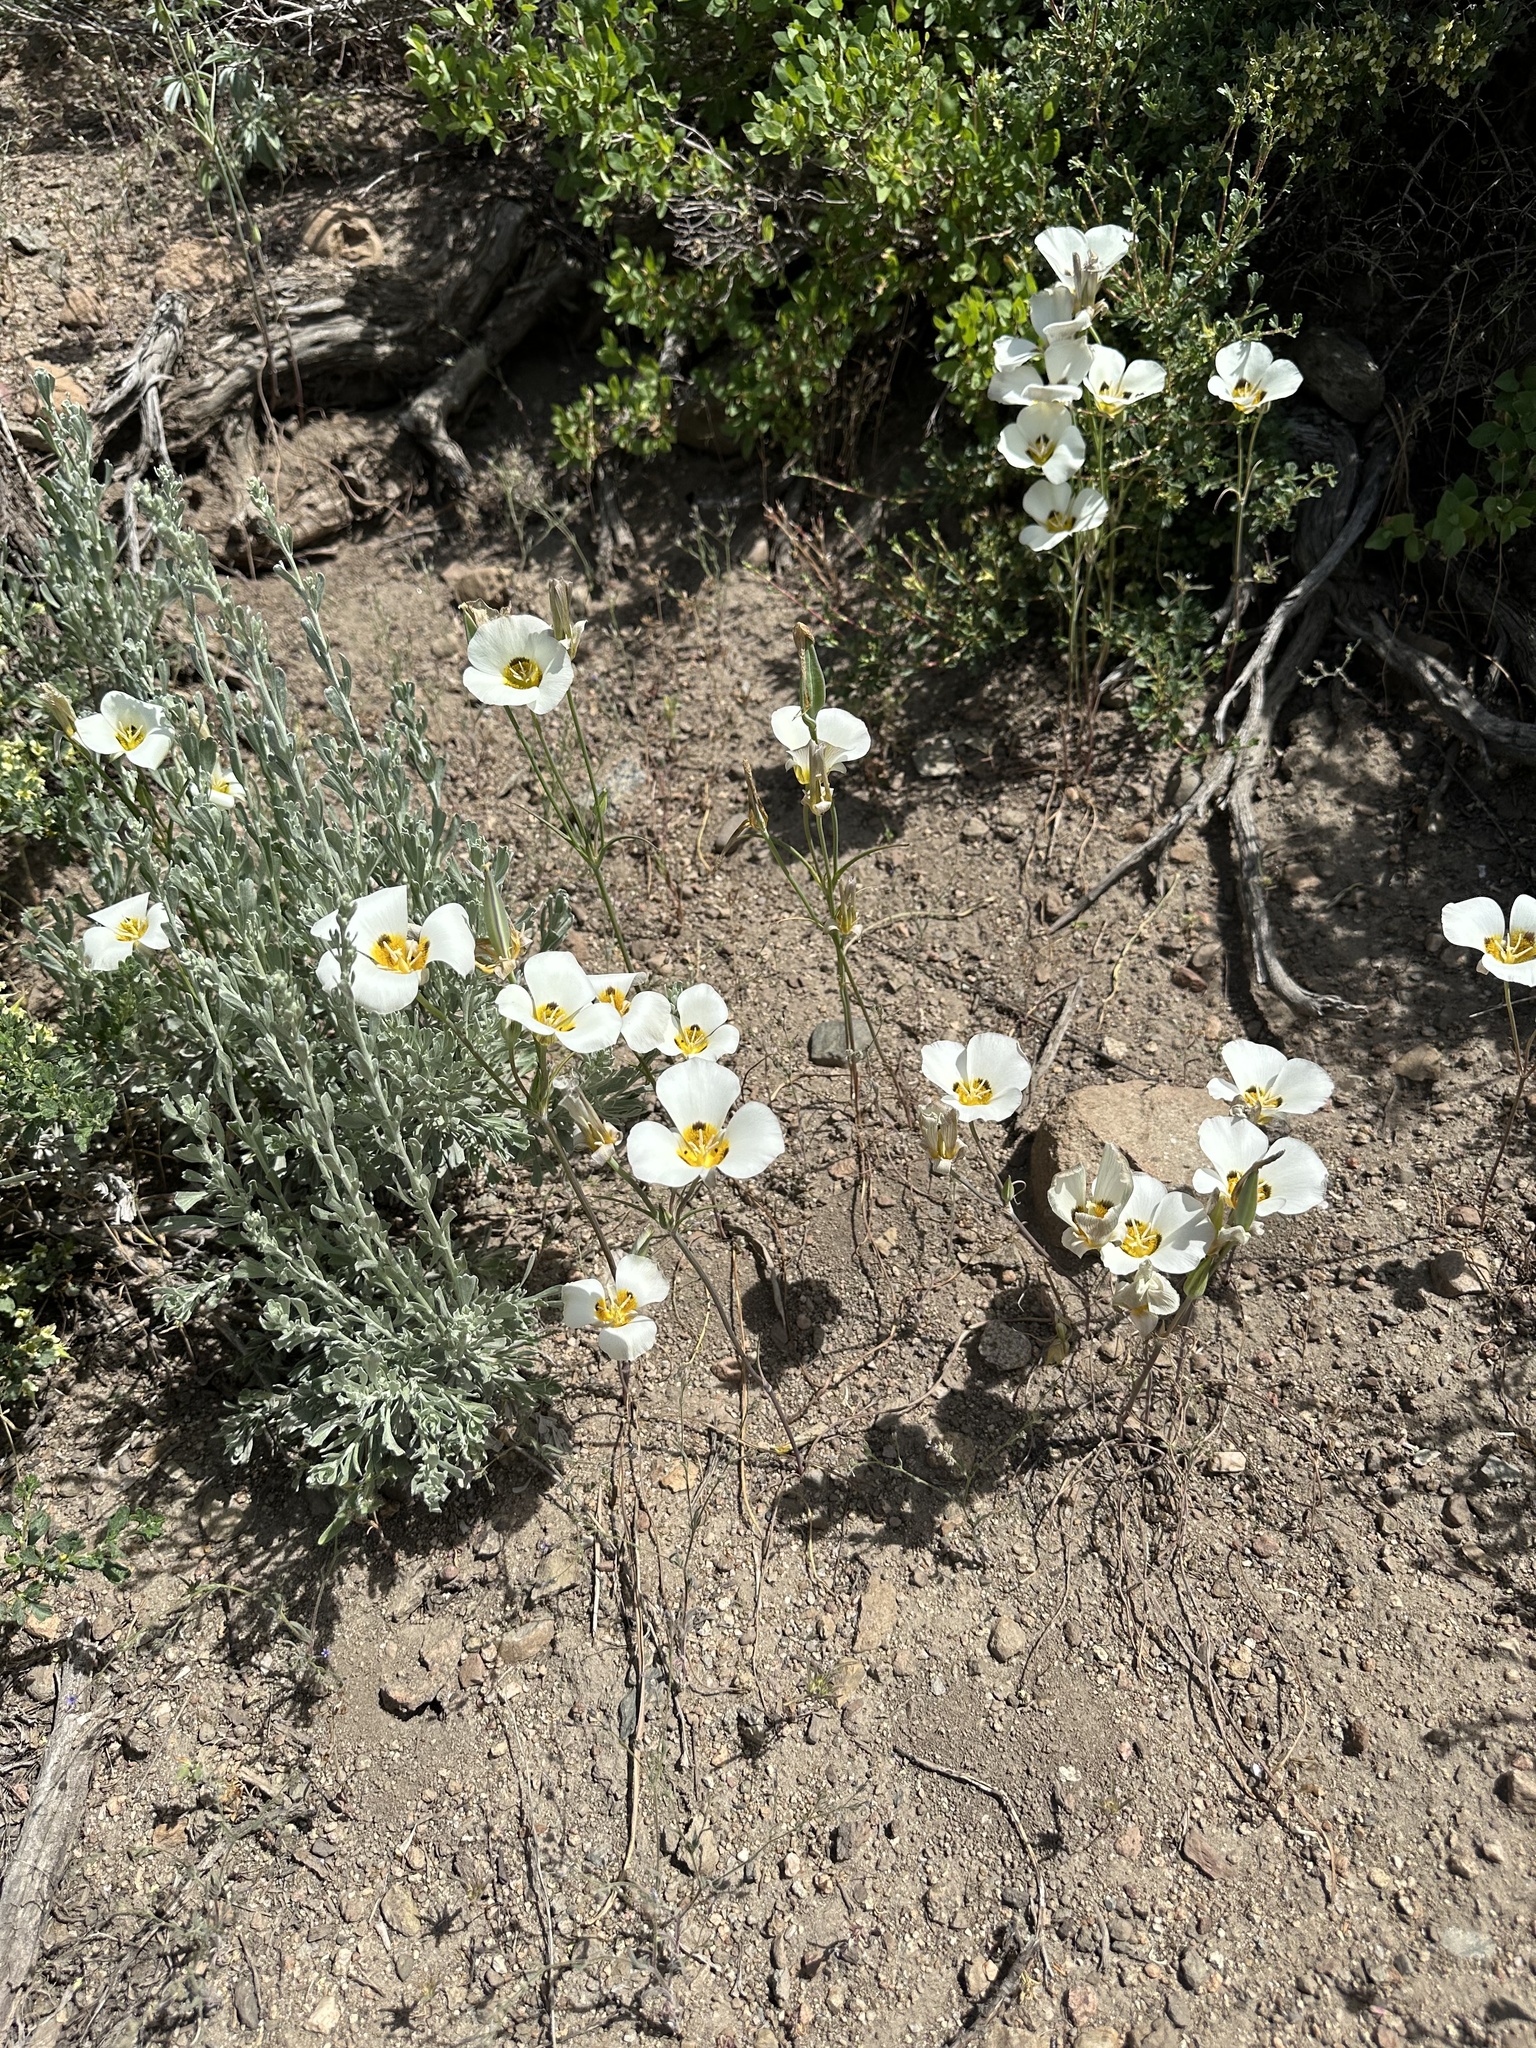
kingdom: Plantae
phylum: Tracheophyta
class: Liliopsida
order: Liliales
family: Liliaceae
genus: Calochortus
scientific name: Calochortus leichtlinii
